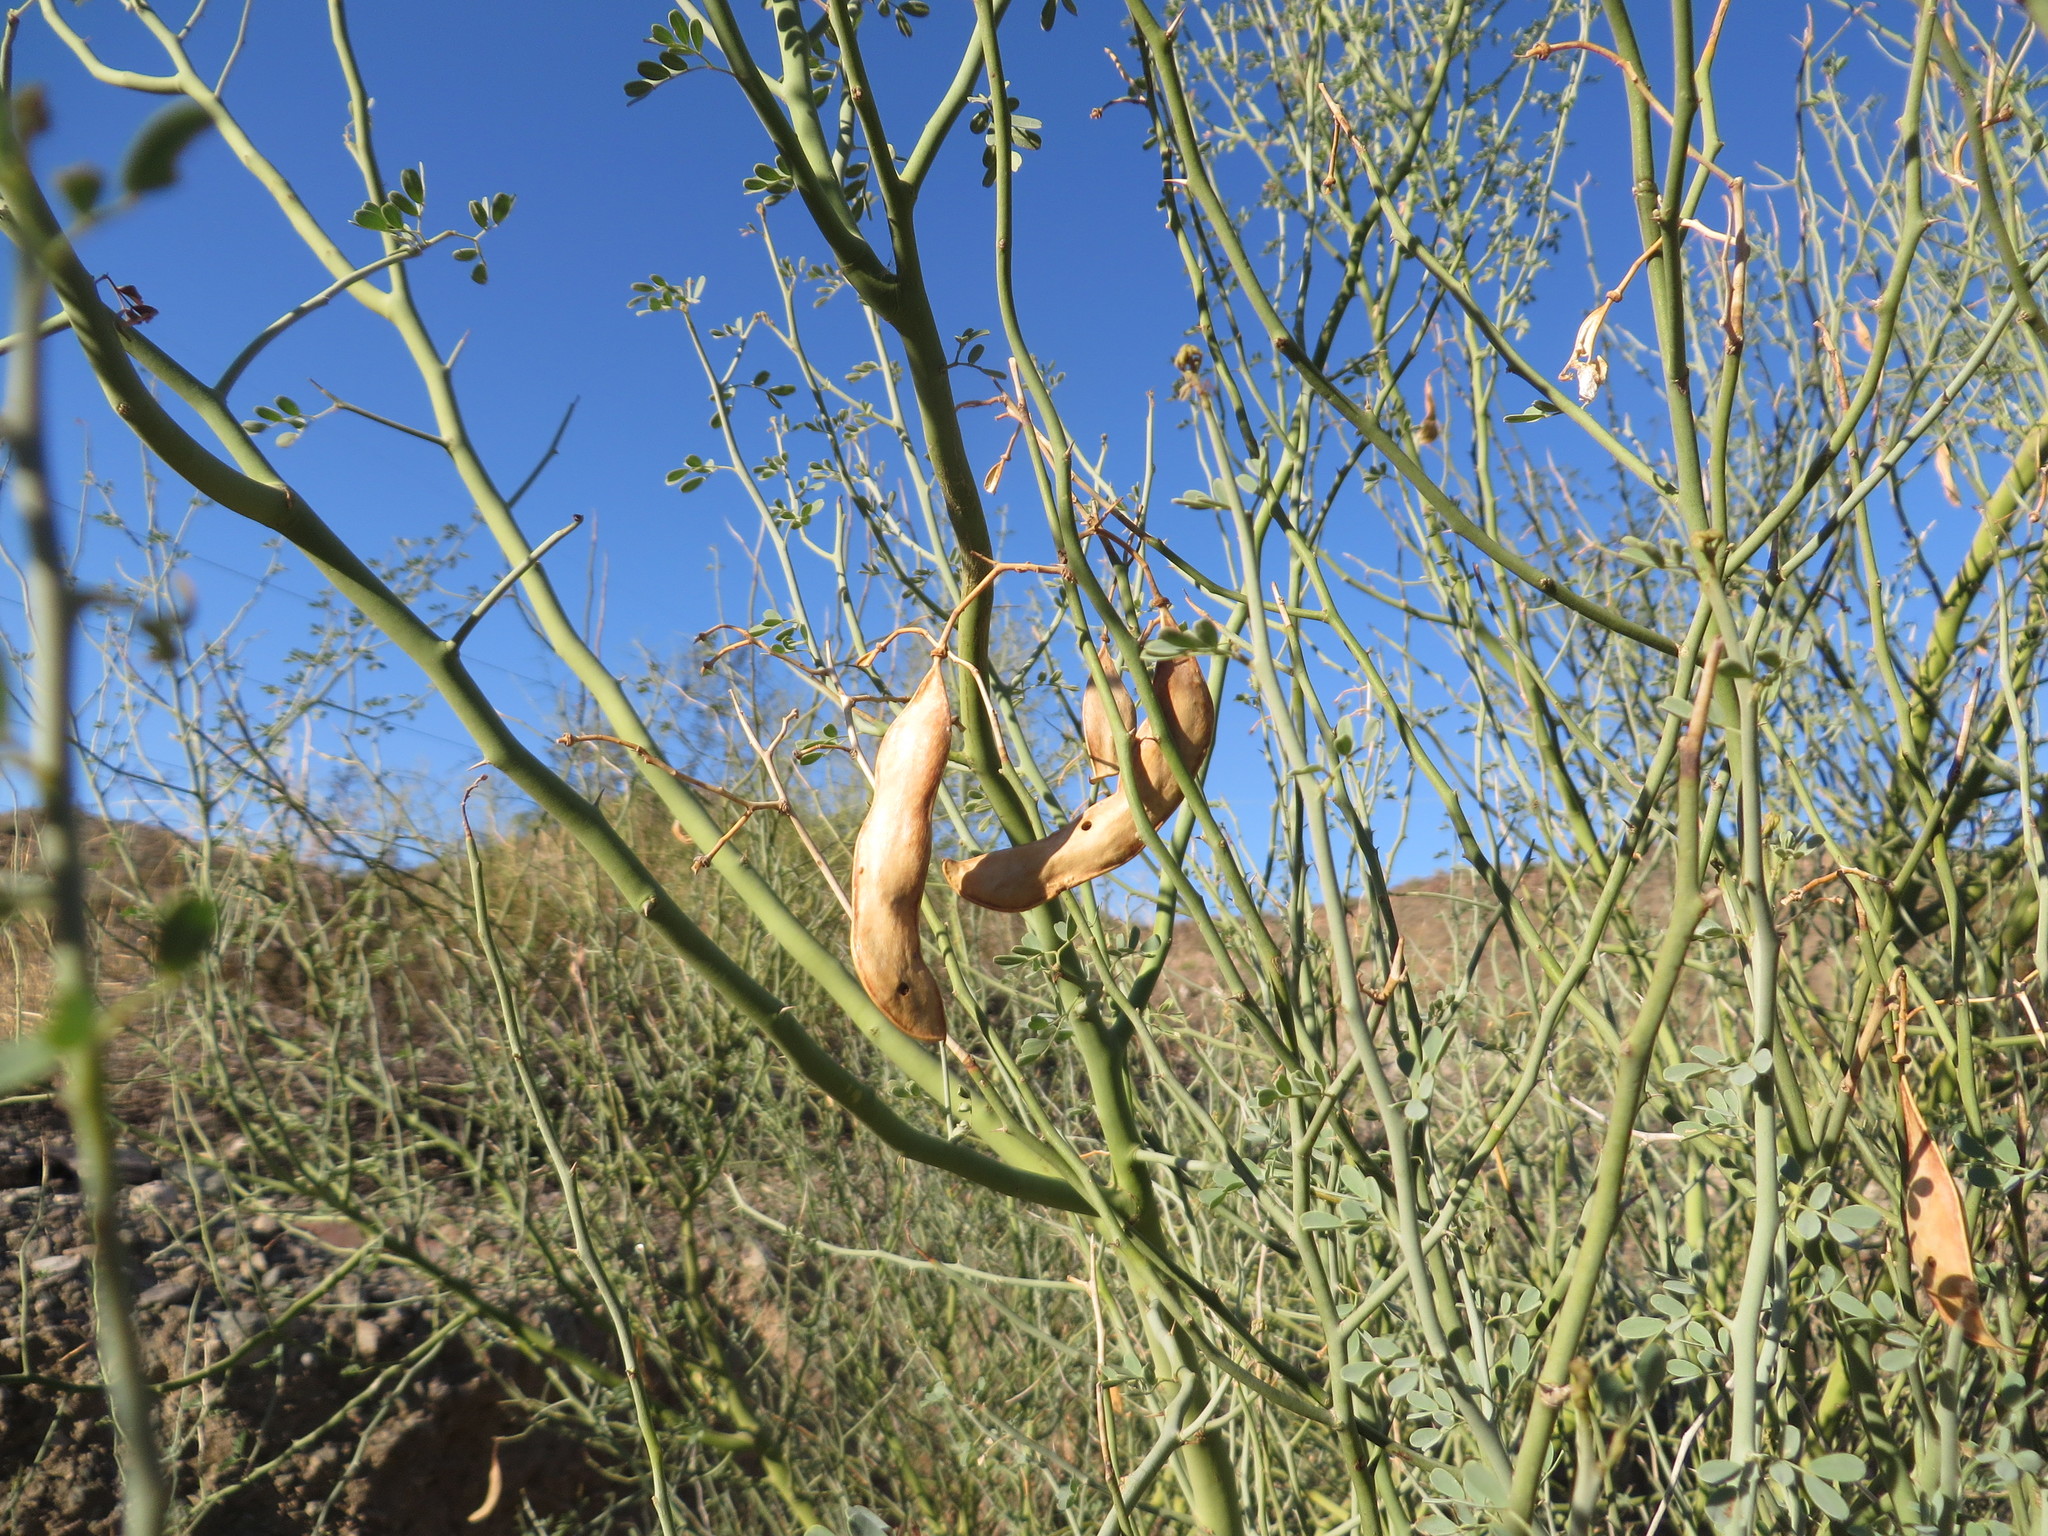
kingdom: Plantae
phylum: Tracheophyta
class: Magnoliopsida
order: Fabales
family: Fabaceae
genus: Parkinsonia
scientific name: Parkinsonia florida
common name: Blue paloverde
